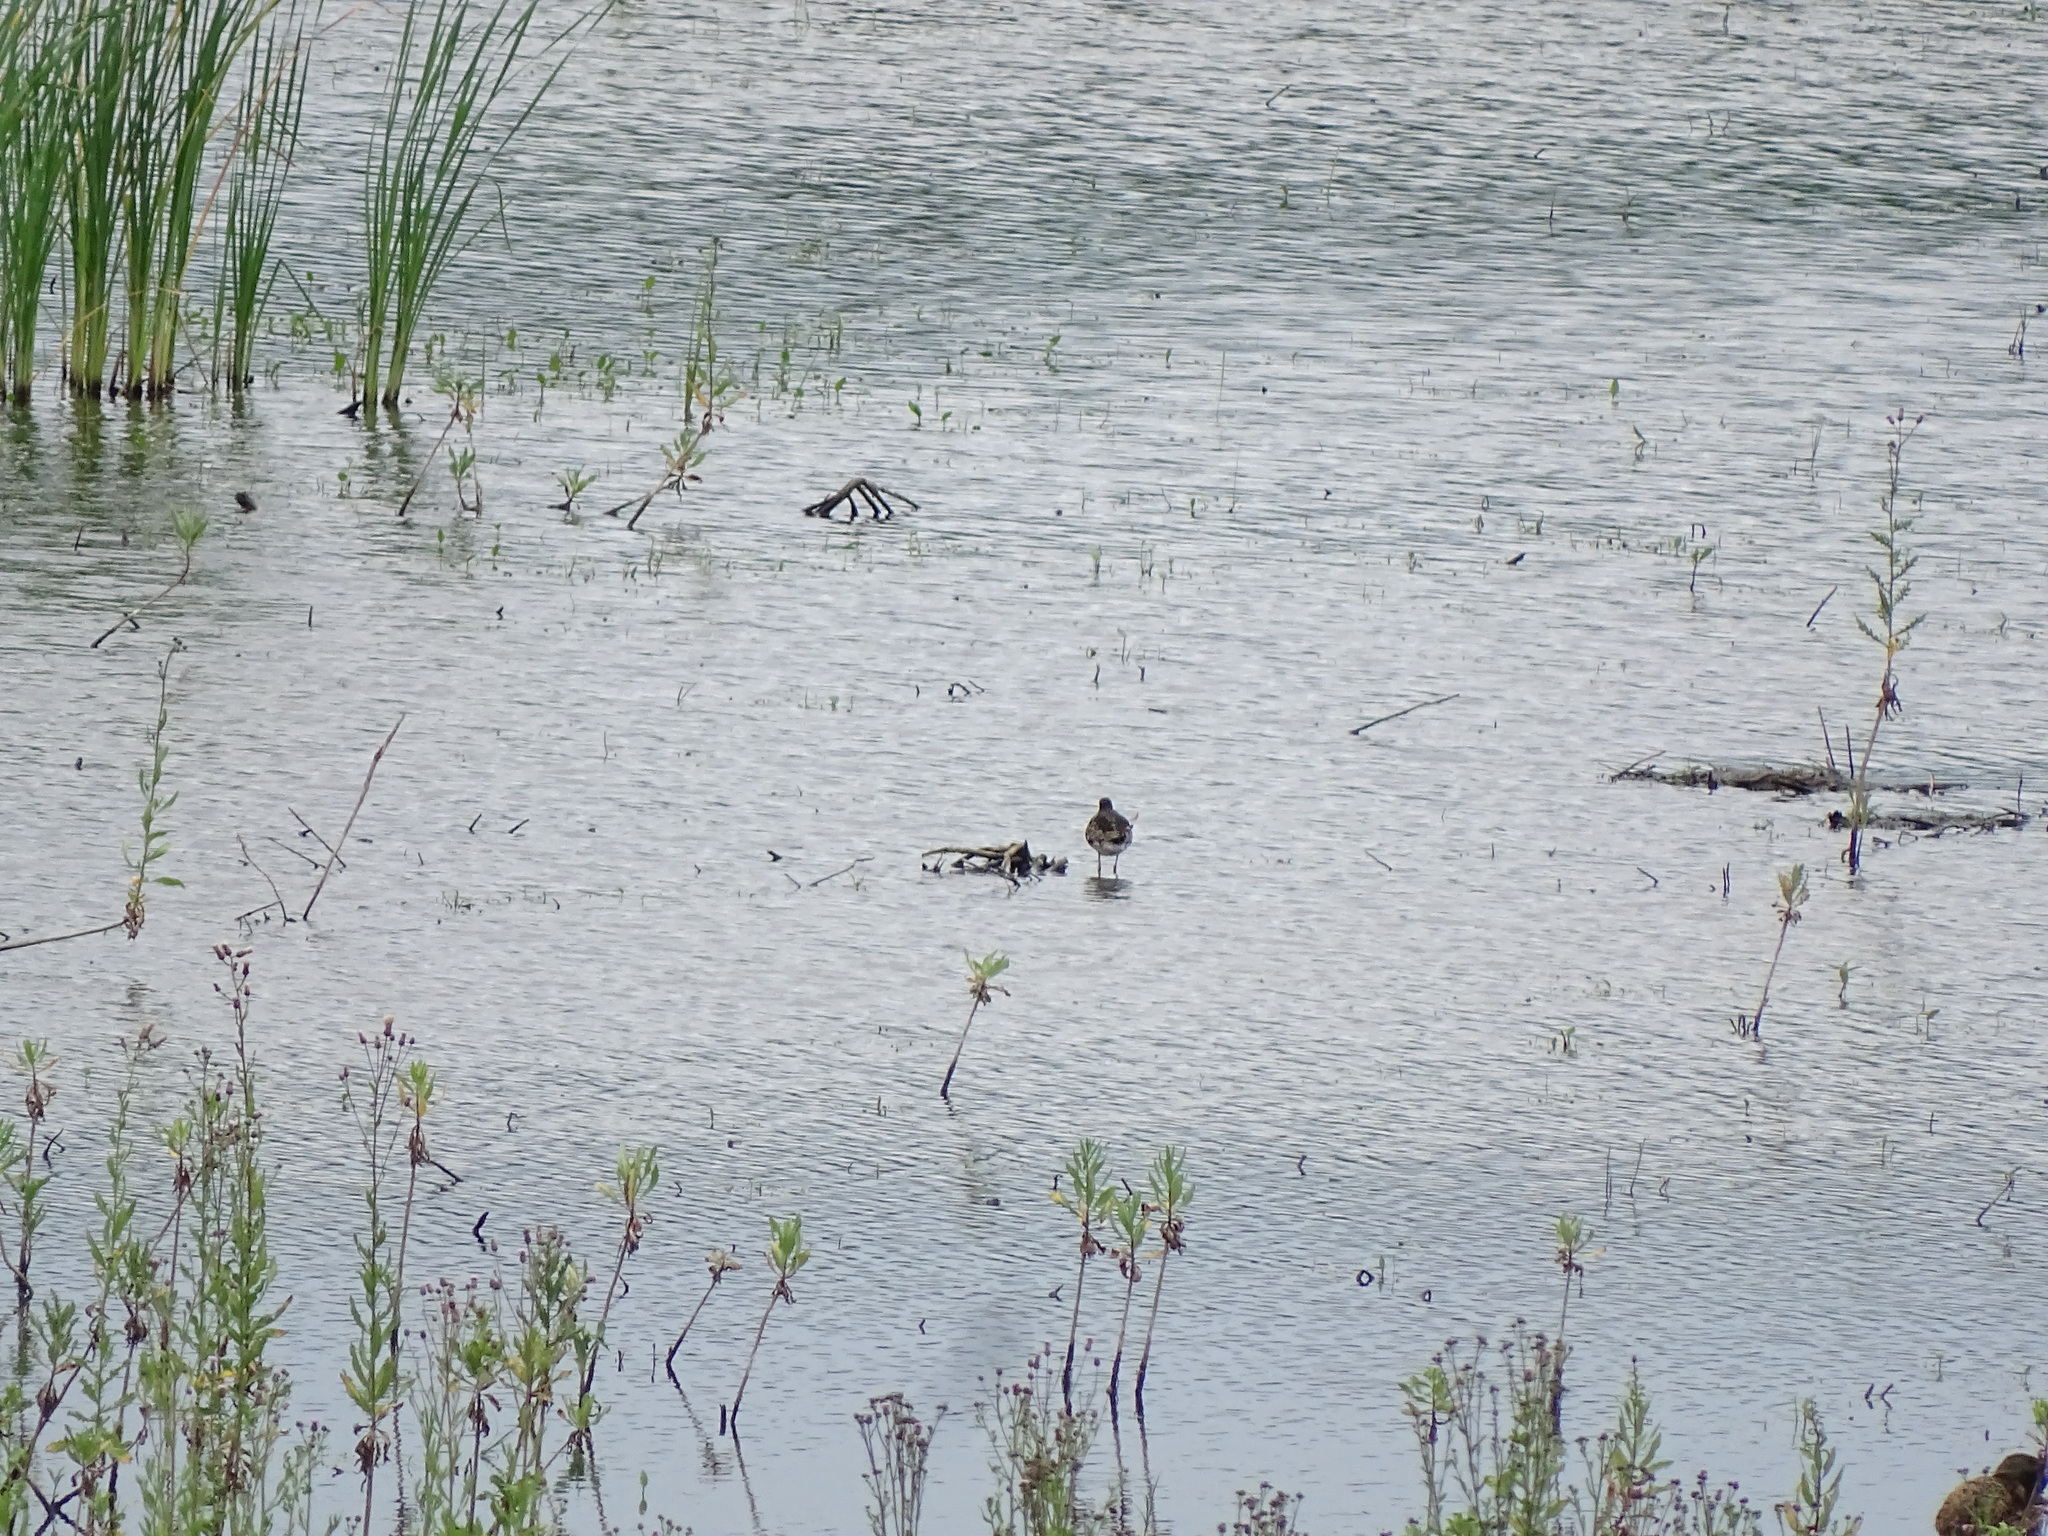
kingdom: Animalia
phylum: Chordata
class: Aves
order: Charadriiformes
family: Scolopacidae
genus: Calidris
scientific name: Calidris pugnax
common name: Ruff
